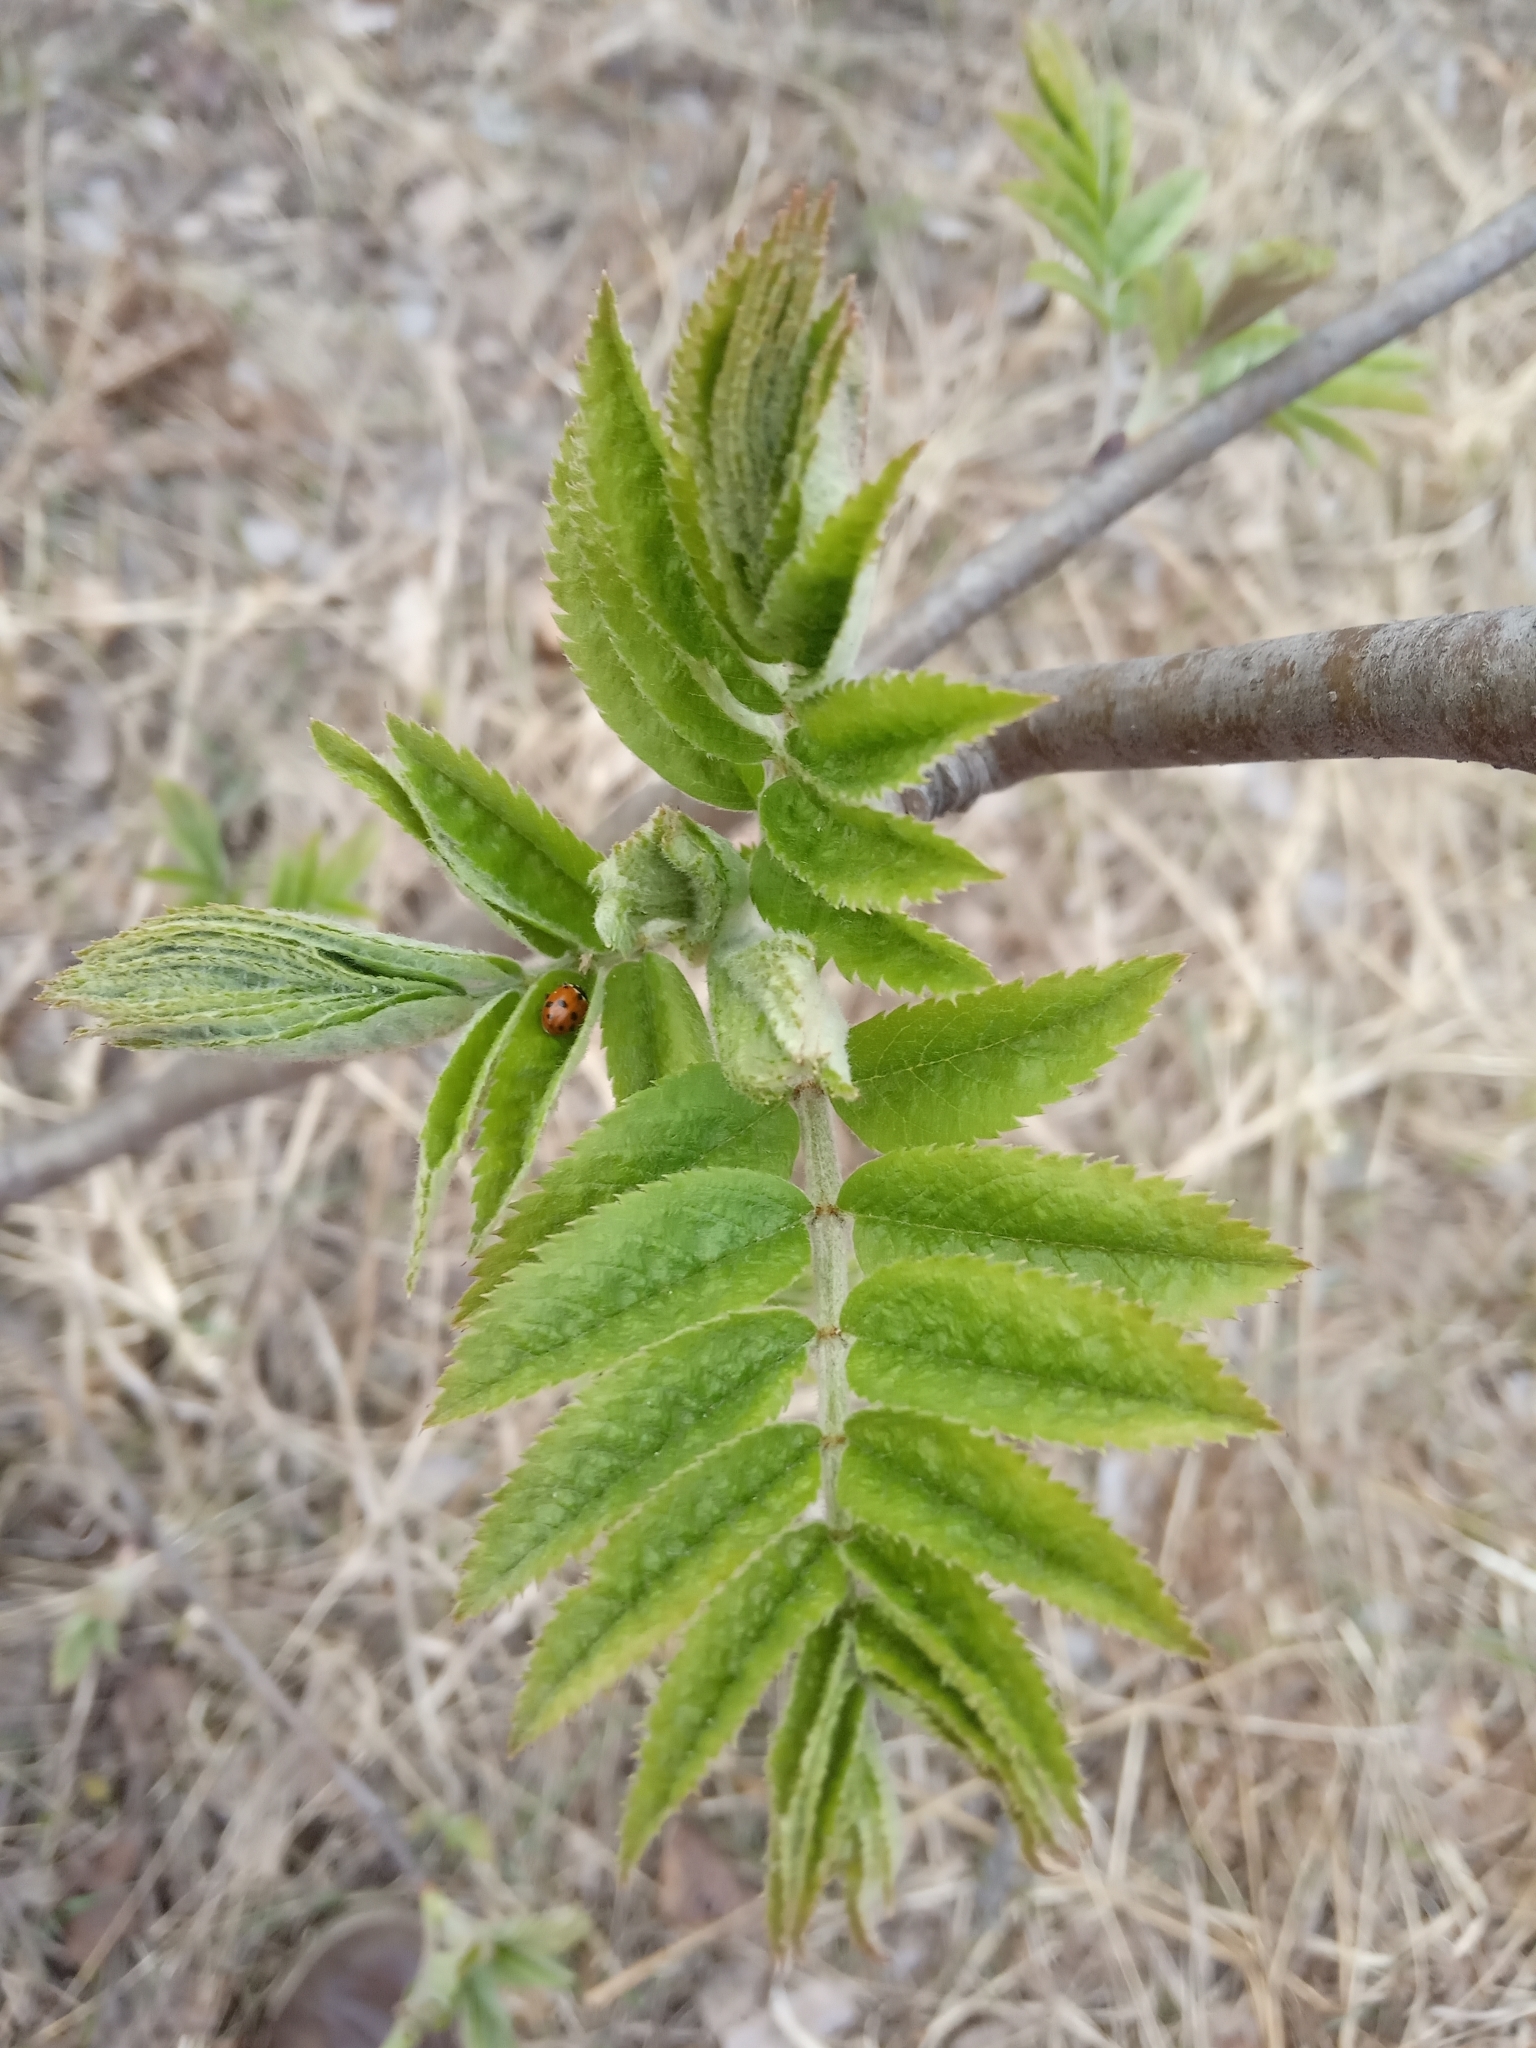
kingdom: Plantae
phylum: Tracheophyta
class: Magnoliopsida
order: Rosales
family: Rosaceae
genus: Sorbus
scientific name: Sorbus aucuparia
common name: Rowan
